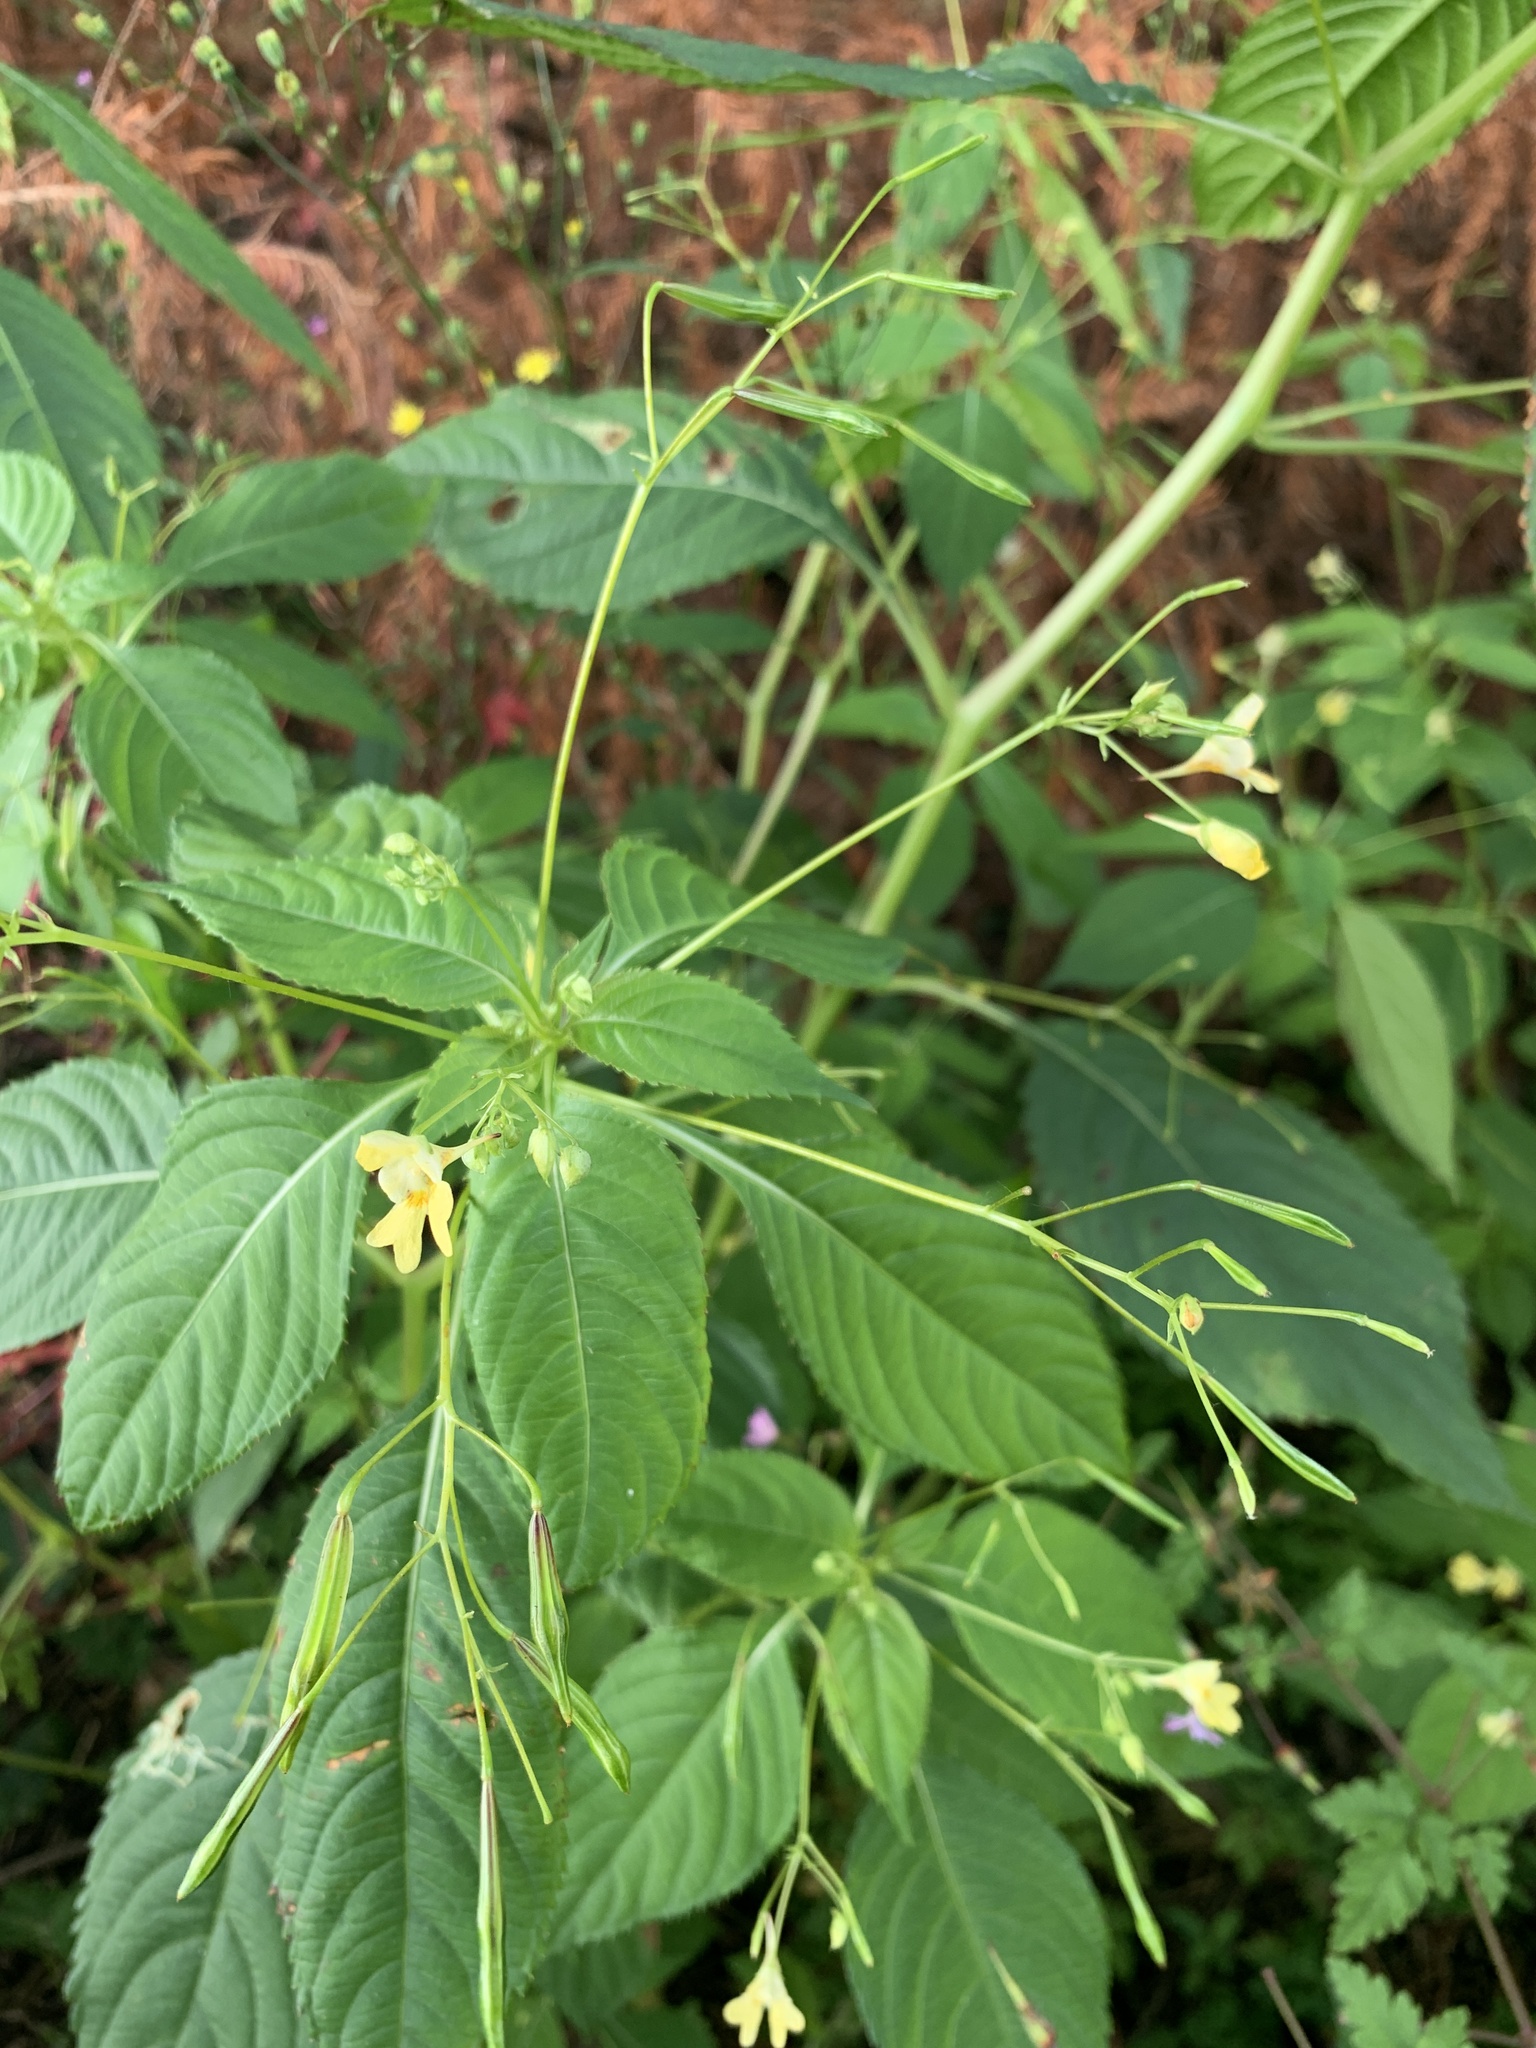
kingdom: Plantae
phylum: Tracheophyta
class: Magnoliopsida
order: Ericales
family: Balsaminaceae
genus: Impatiens
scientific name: Impatiens parviflora
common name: Small balsam
